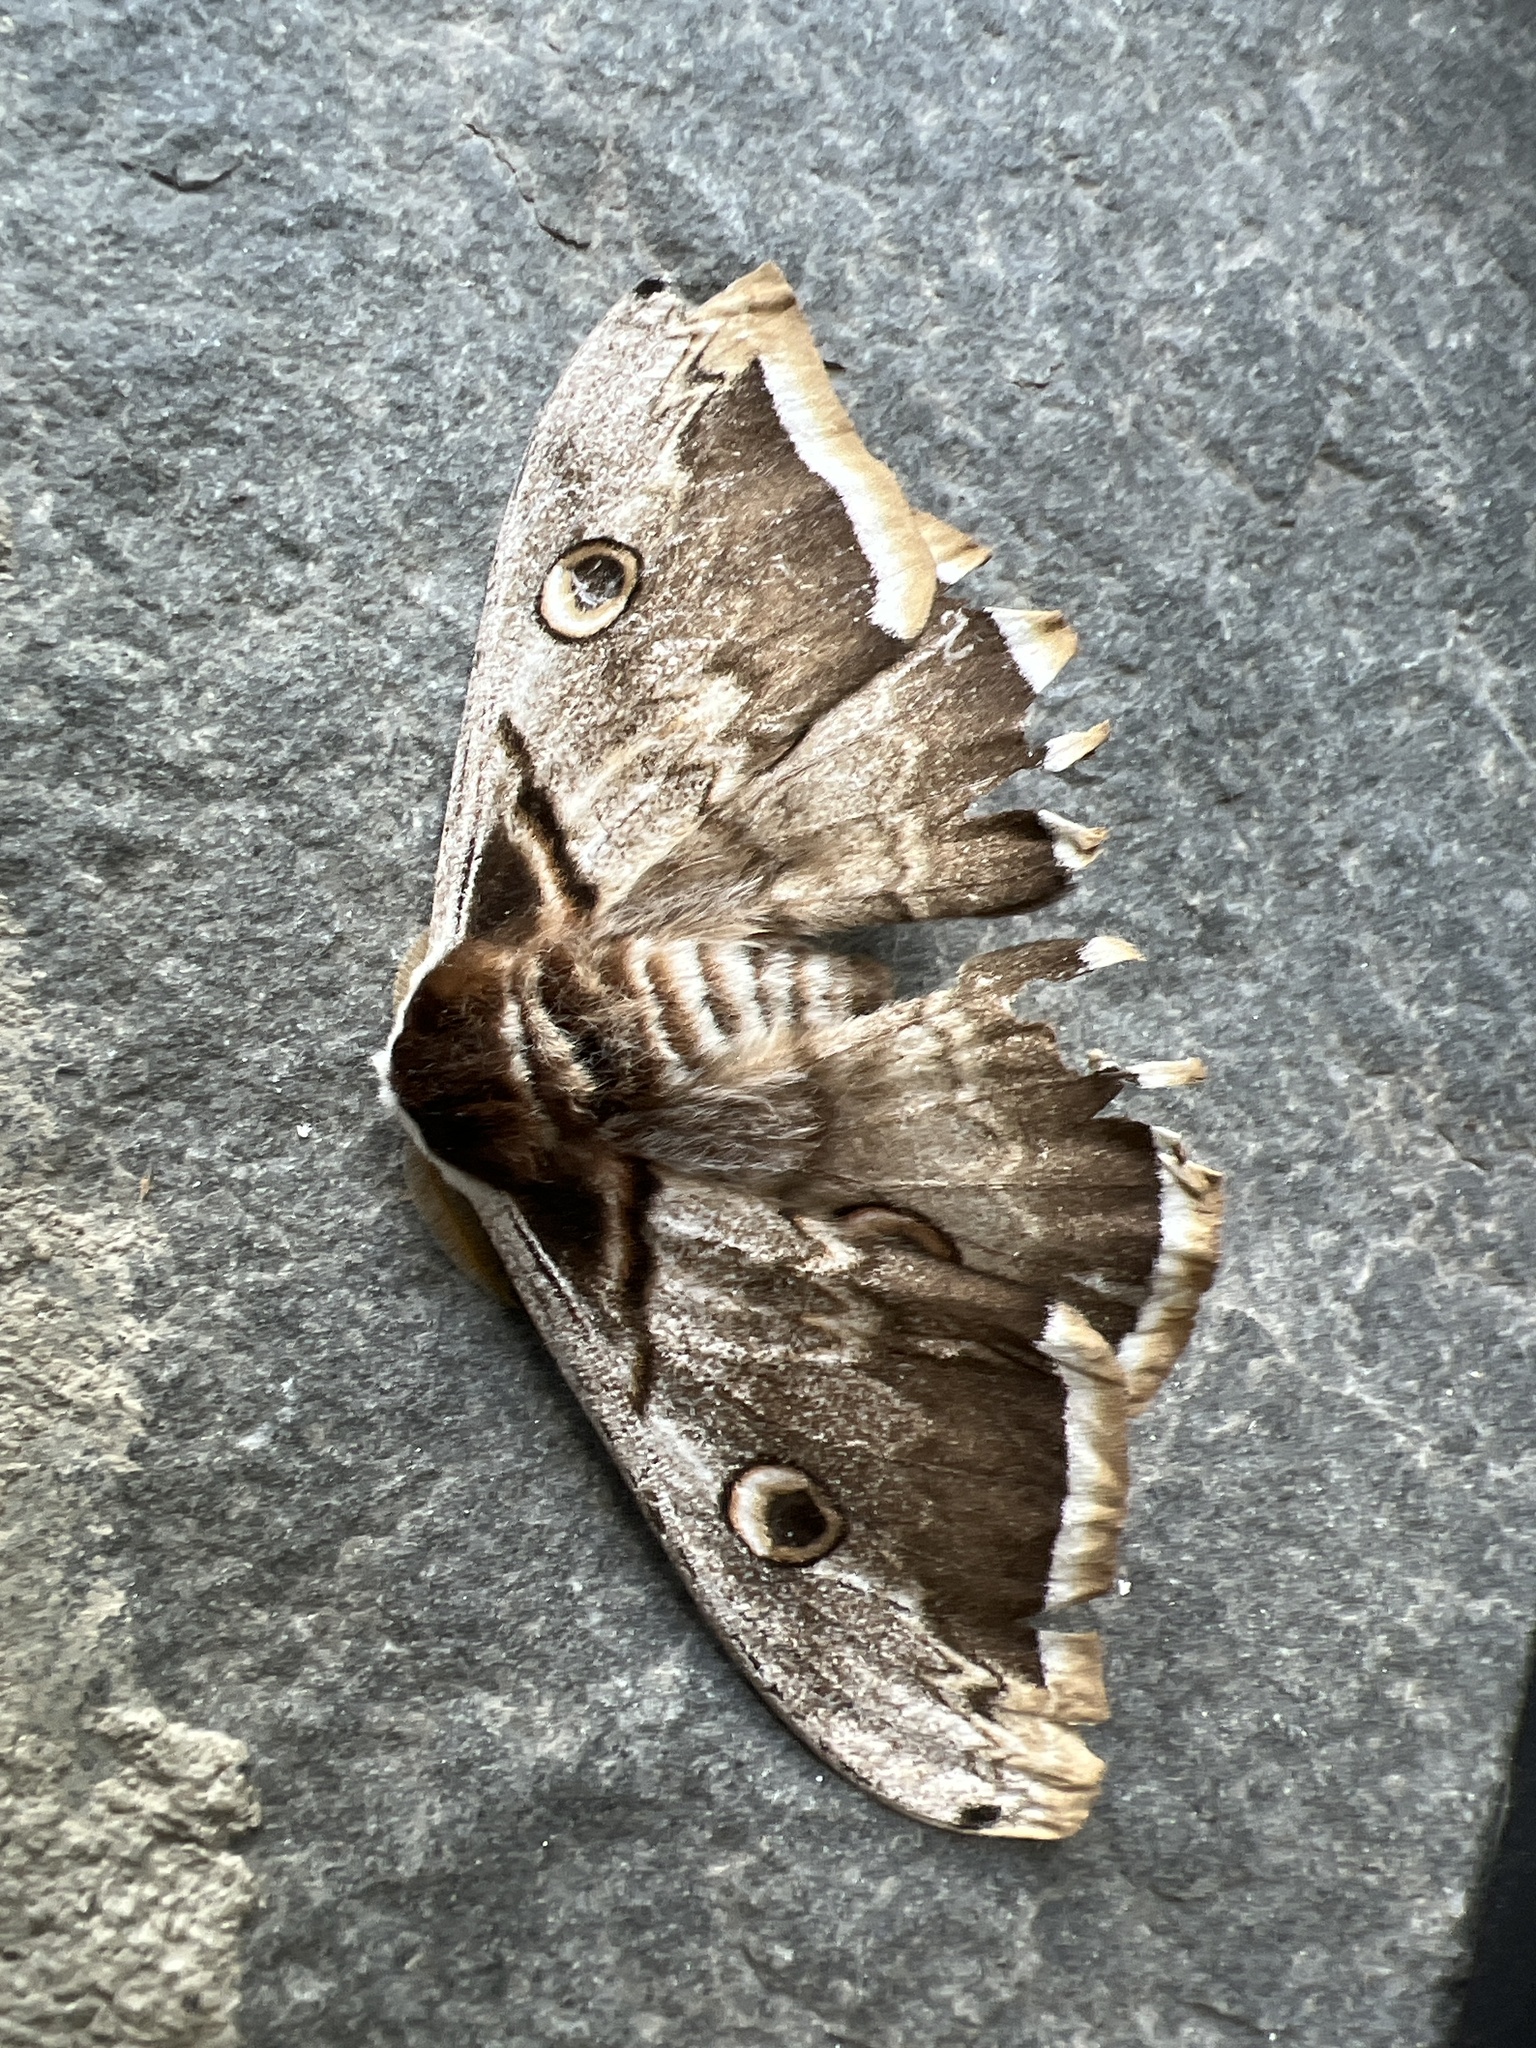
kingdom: Animalia
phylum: Arthropoda
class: Insecta
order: Lepidoptera
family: Saturniidae
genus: Saturnia
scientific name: Saturnia pyri
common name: Great peacock moth
